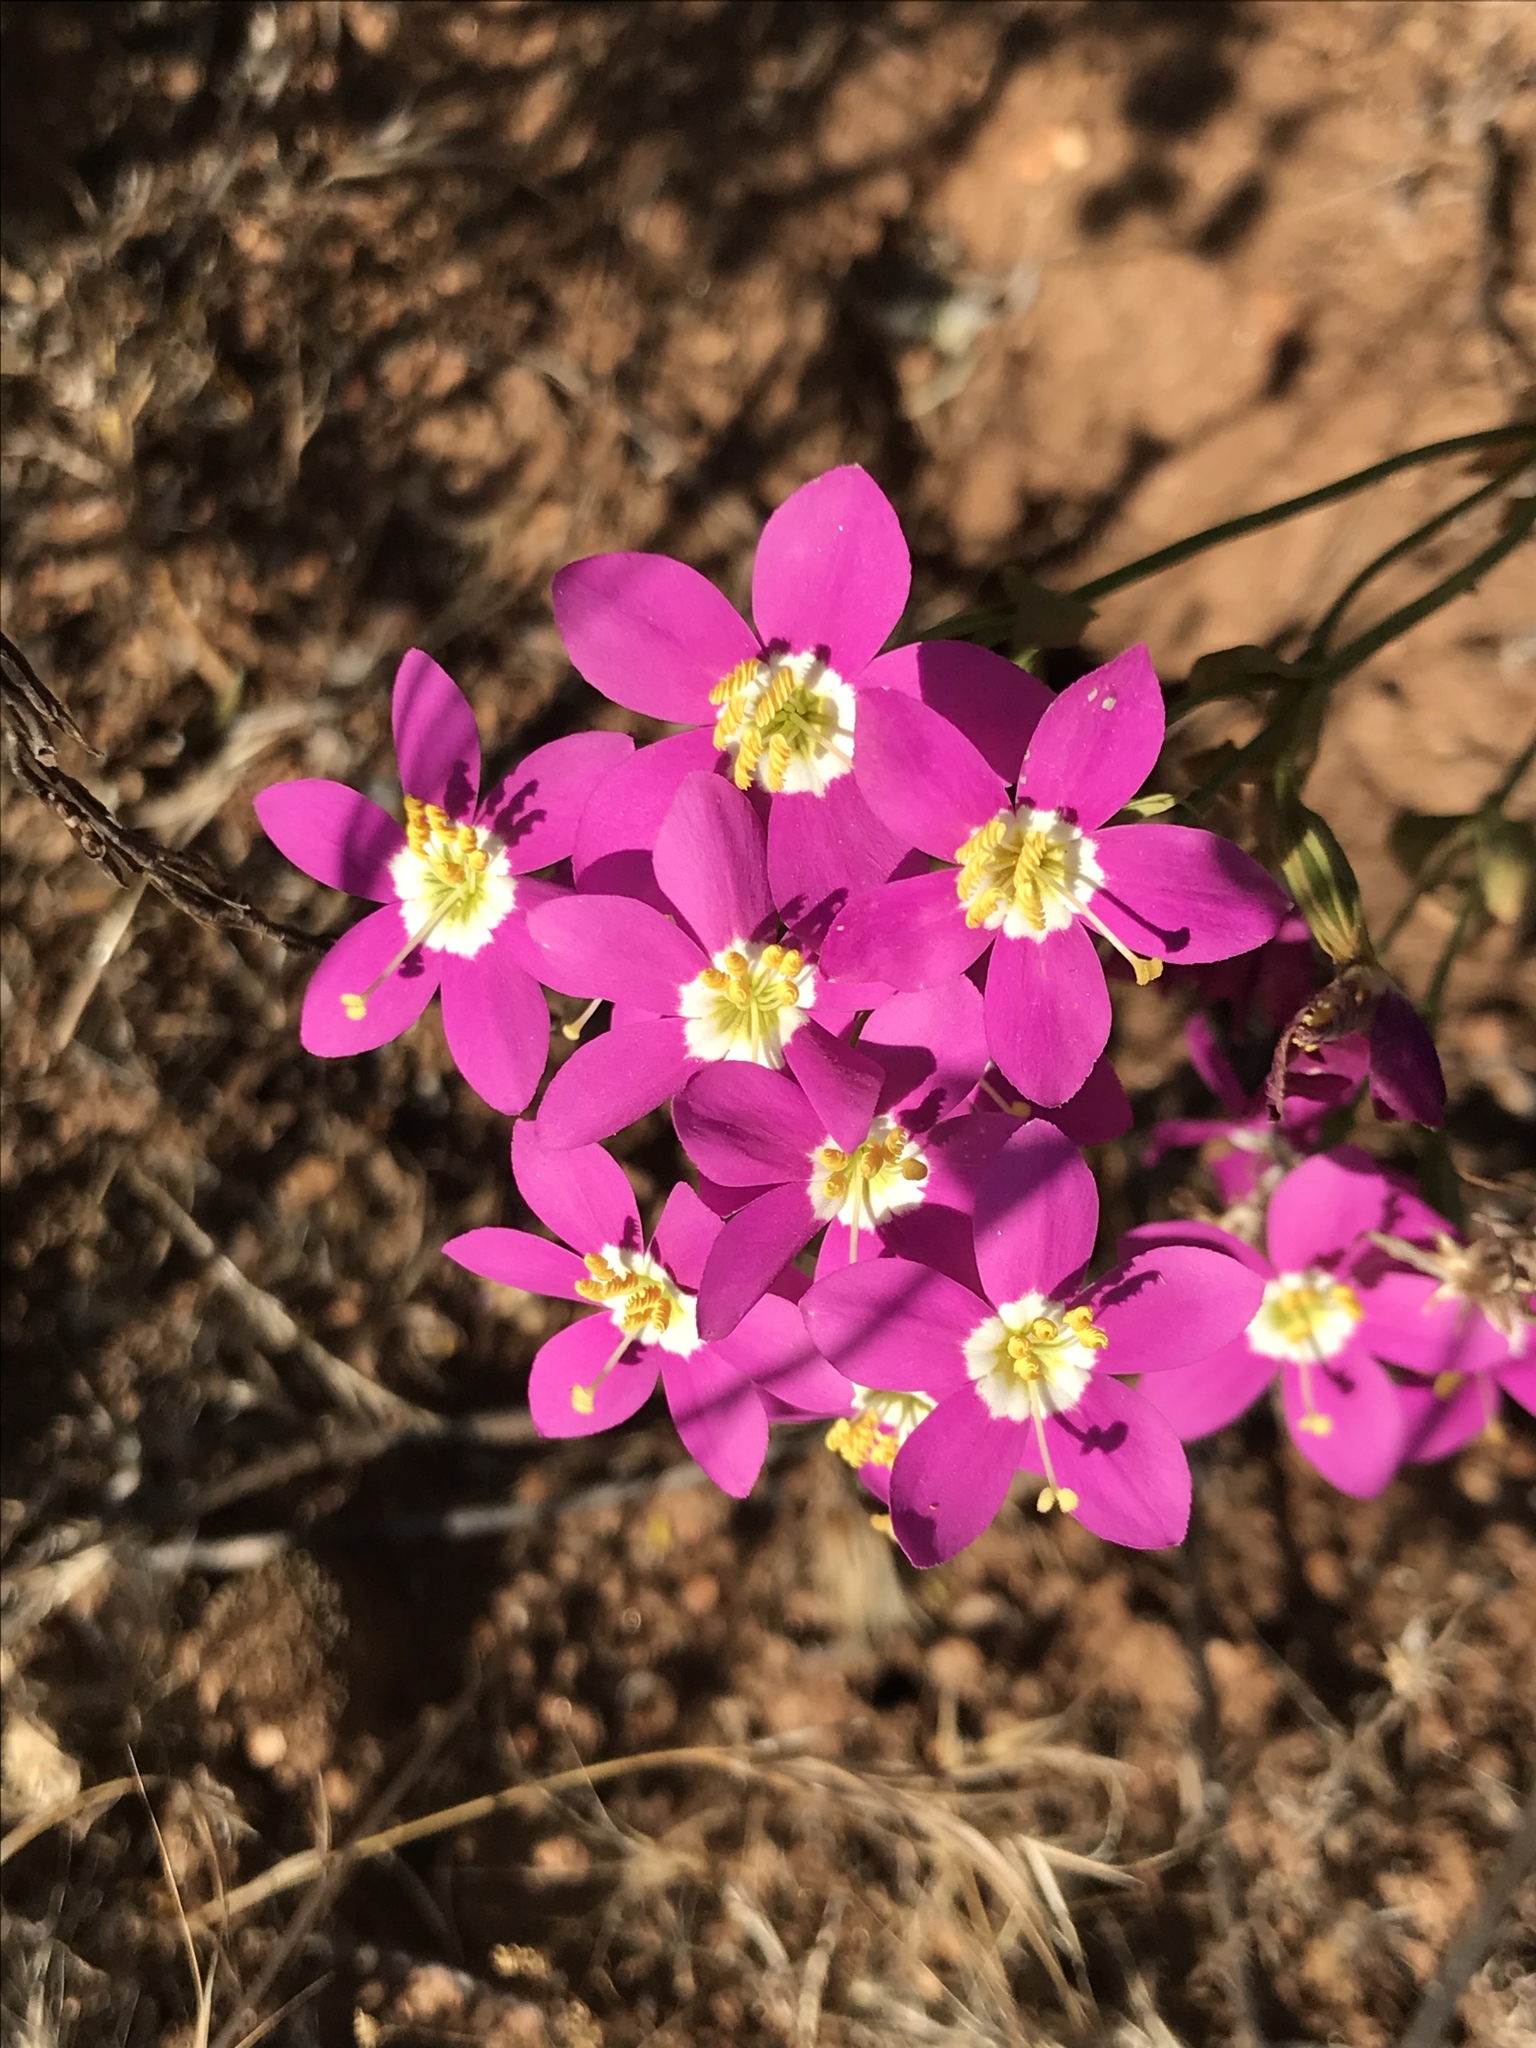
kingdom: Plantae
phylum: Tracheophyta
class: Magnoliopsida
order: Gentianales
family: Gentianaceae
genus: Zeltnera
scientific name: Zeltnera venusta
